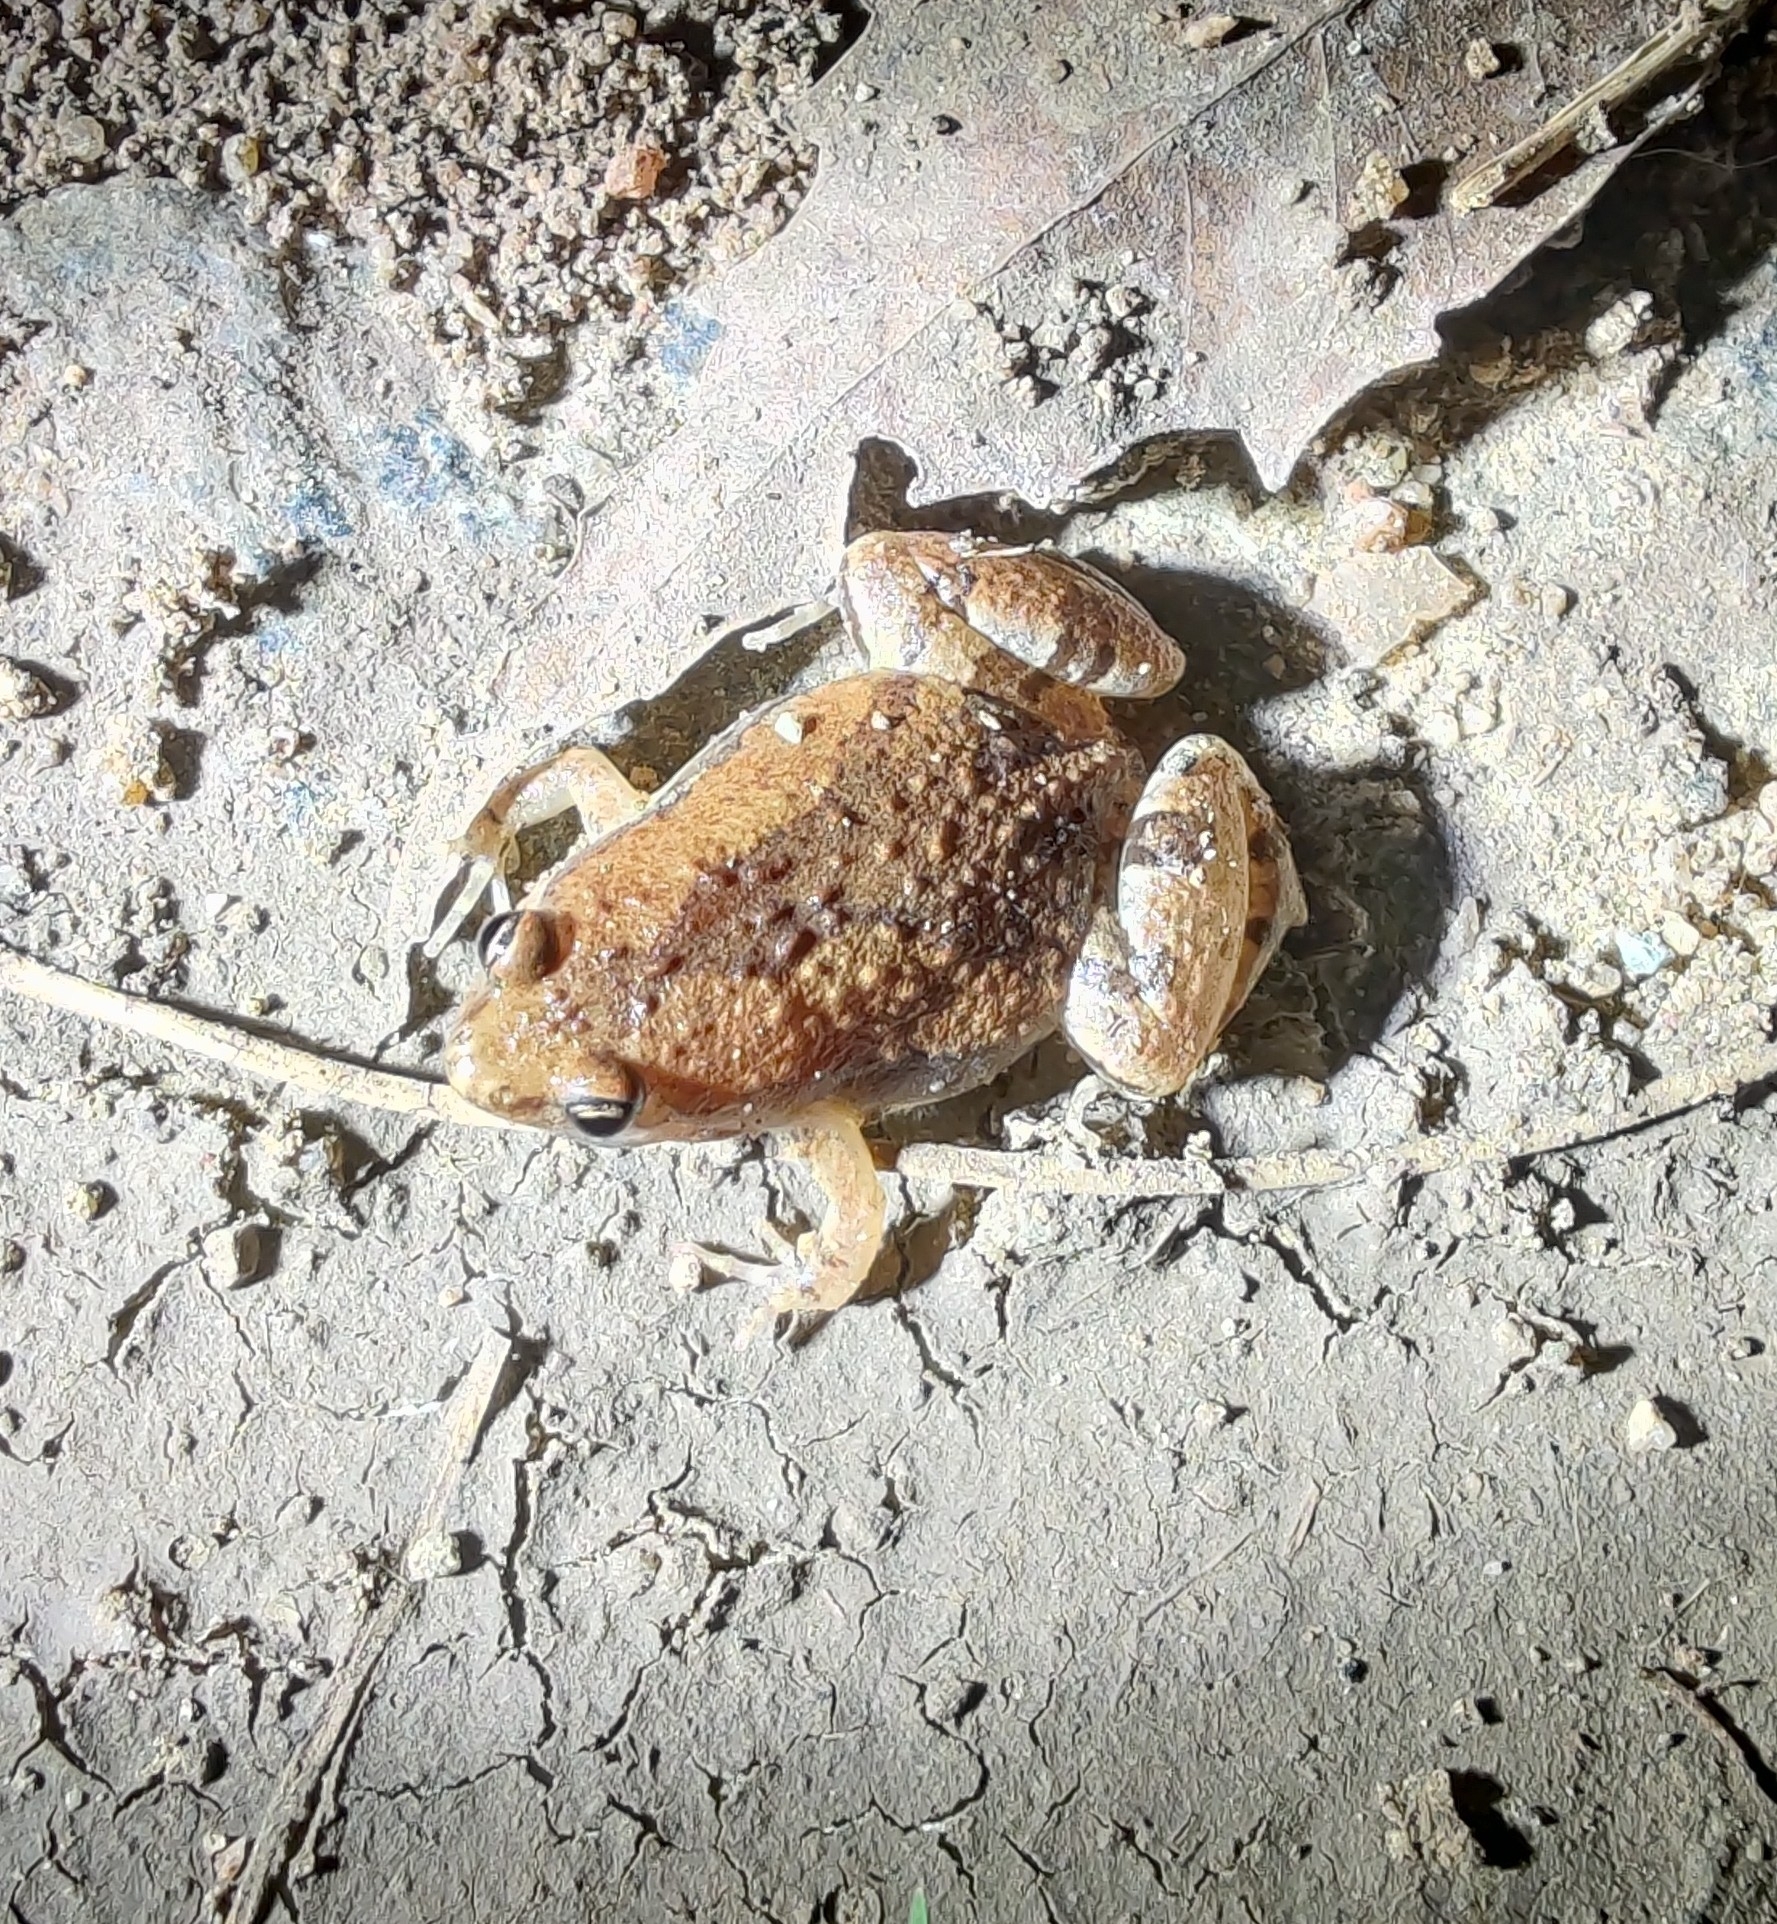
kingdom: Animalia
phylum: Chordata
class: Amphibia
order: Anura
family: Microhylidae
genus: Microhyla
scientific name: Microhyla rubra
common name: Guangdong rice frog
